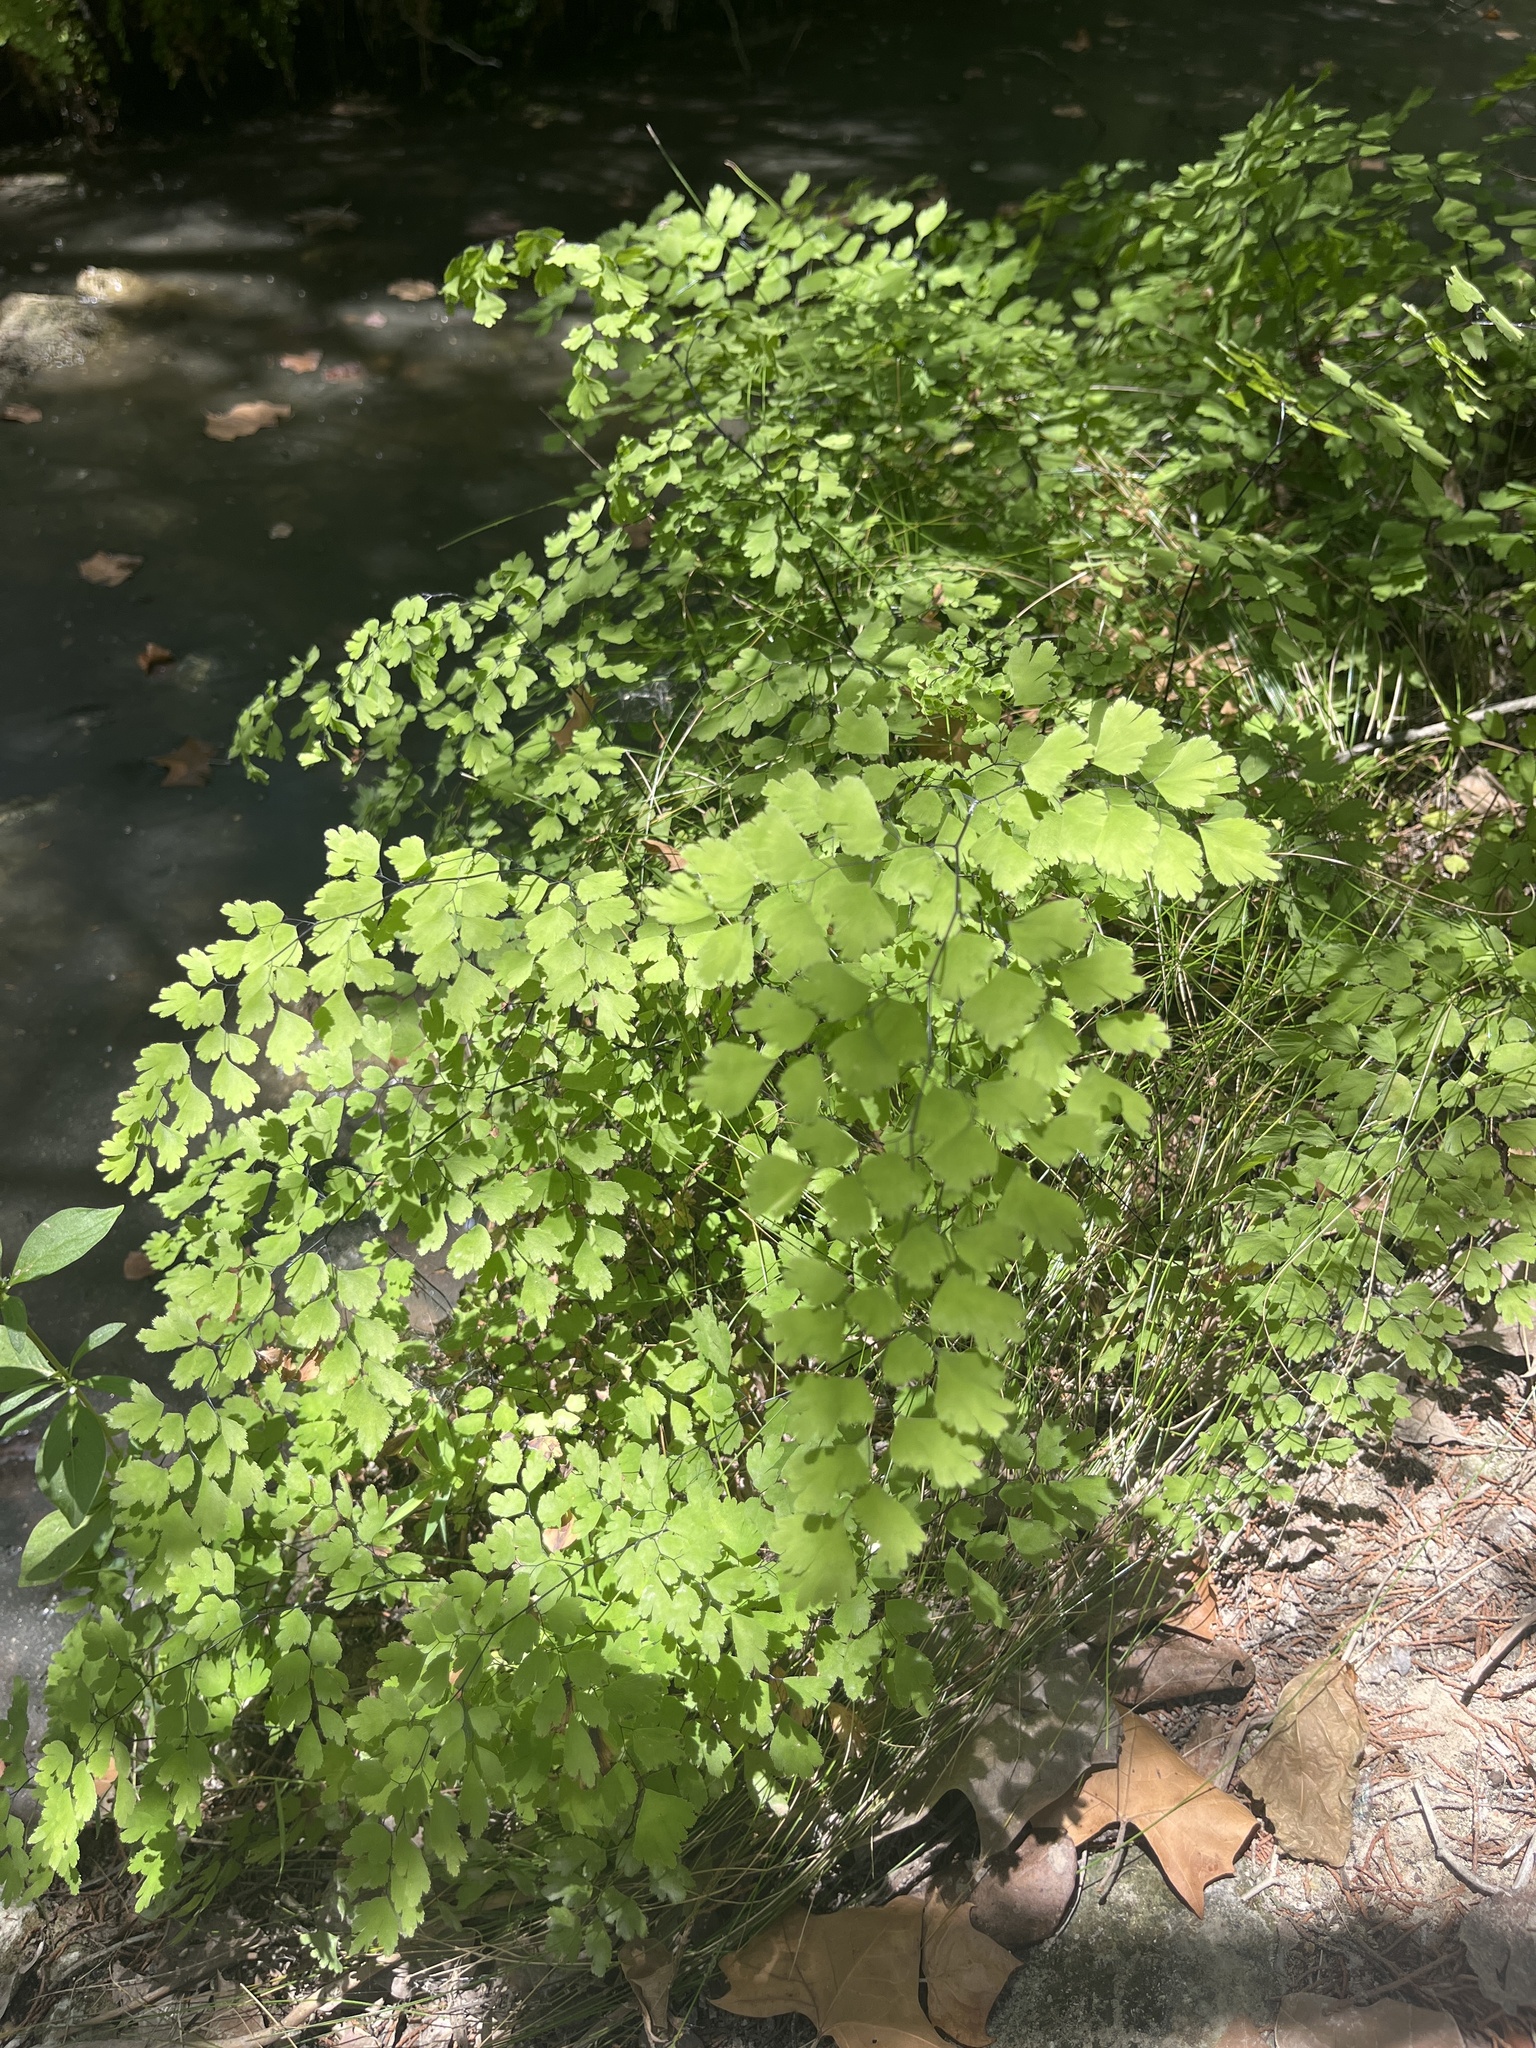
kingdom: Plantae
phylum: Tracheophyta
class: Polypodiopsida
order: Polypodiales
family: Pteridaceae
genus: Adiantum
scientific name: Adiantum capillus-veneris
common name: Maidenhair fern
